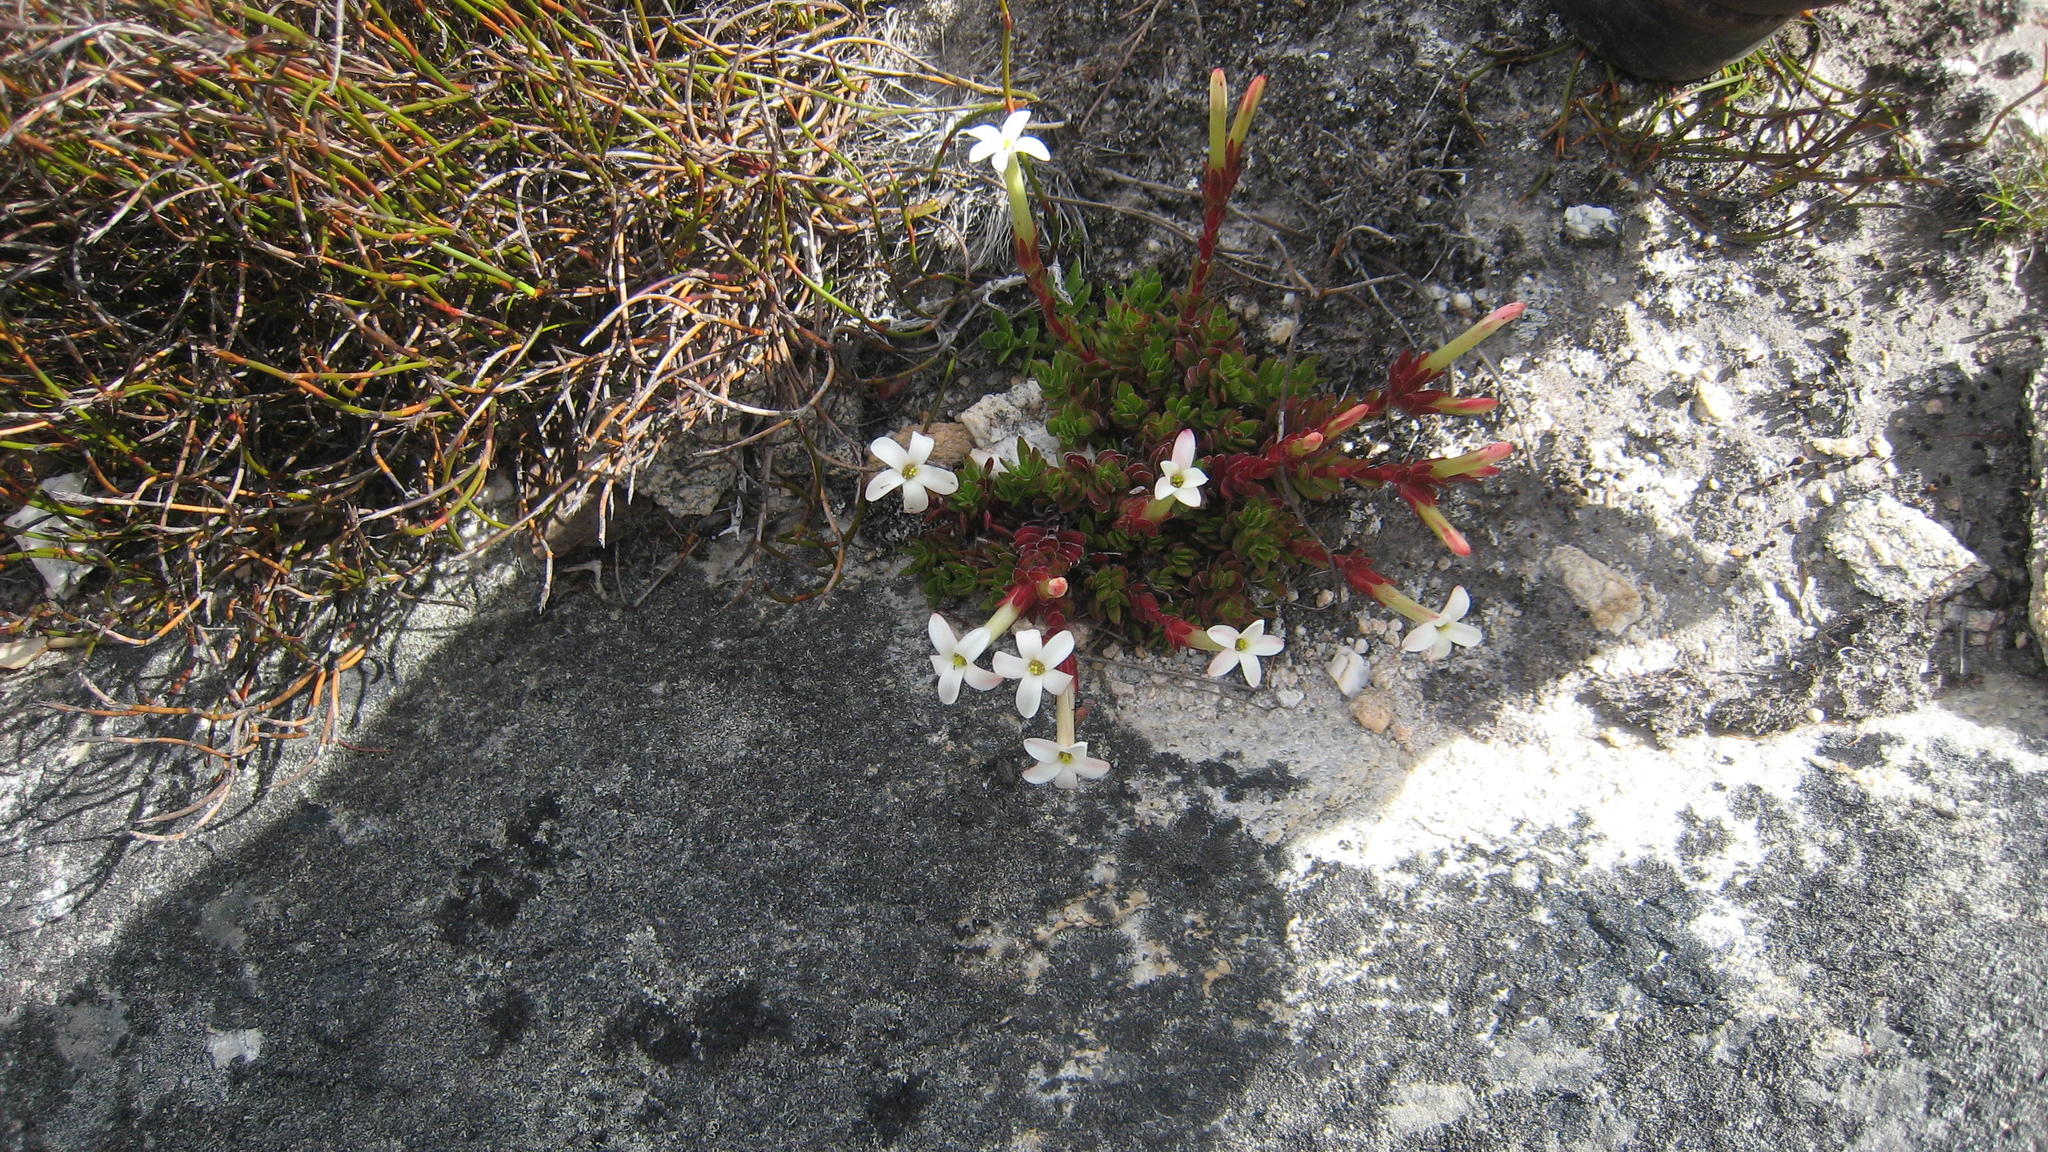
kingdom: Plantae
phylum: Tracheophyta
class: Magnoliopsida
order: Saxifragales
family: Crassulaceae
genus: Crassula
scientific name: Crassula obtusa
